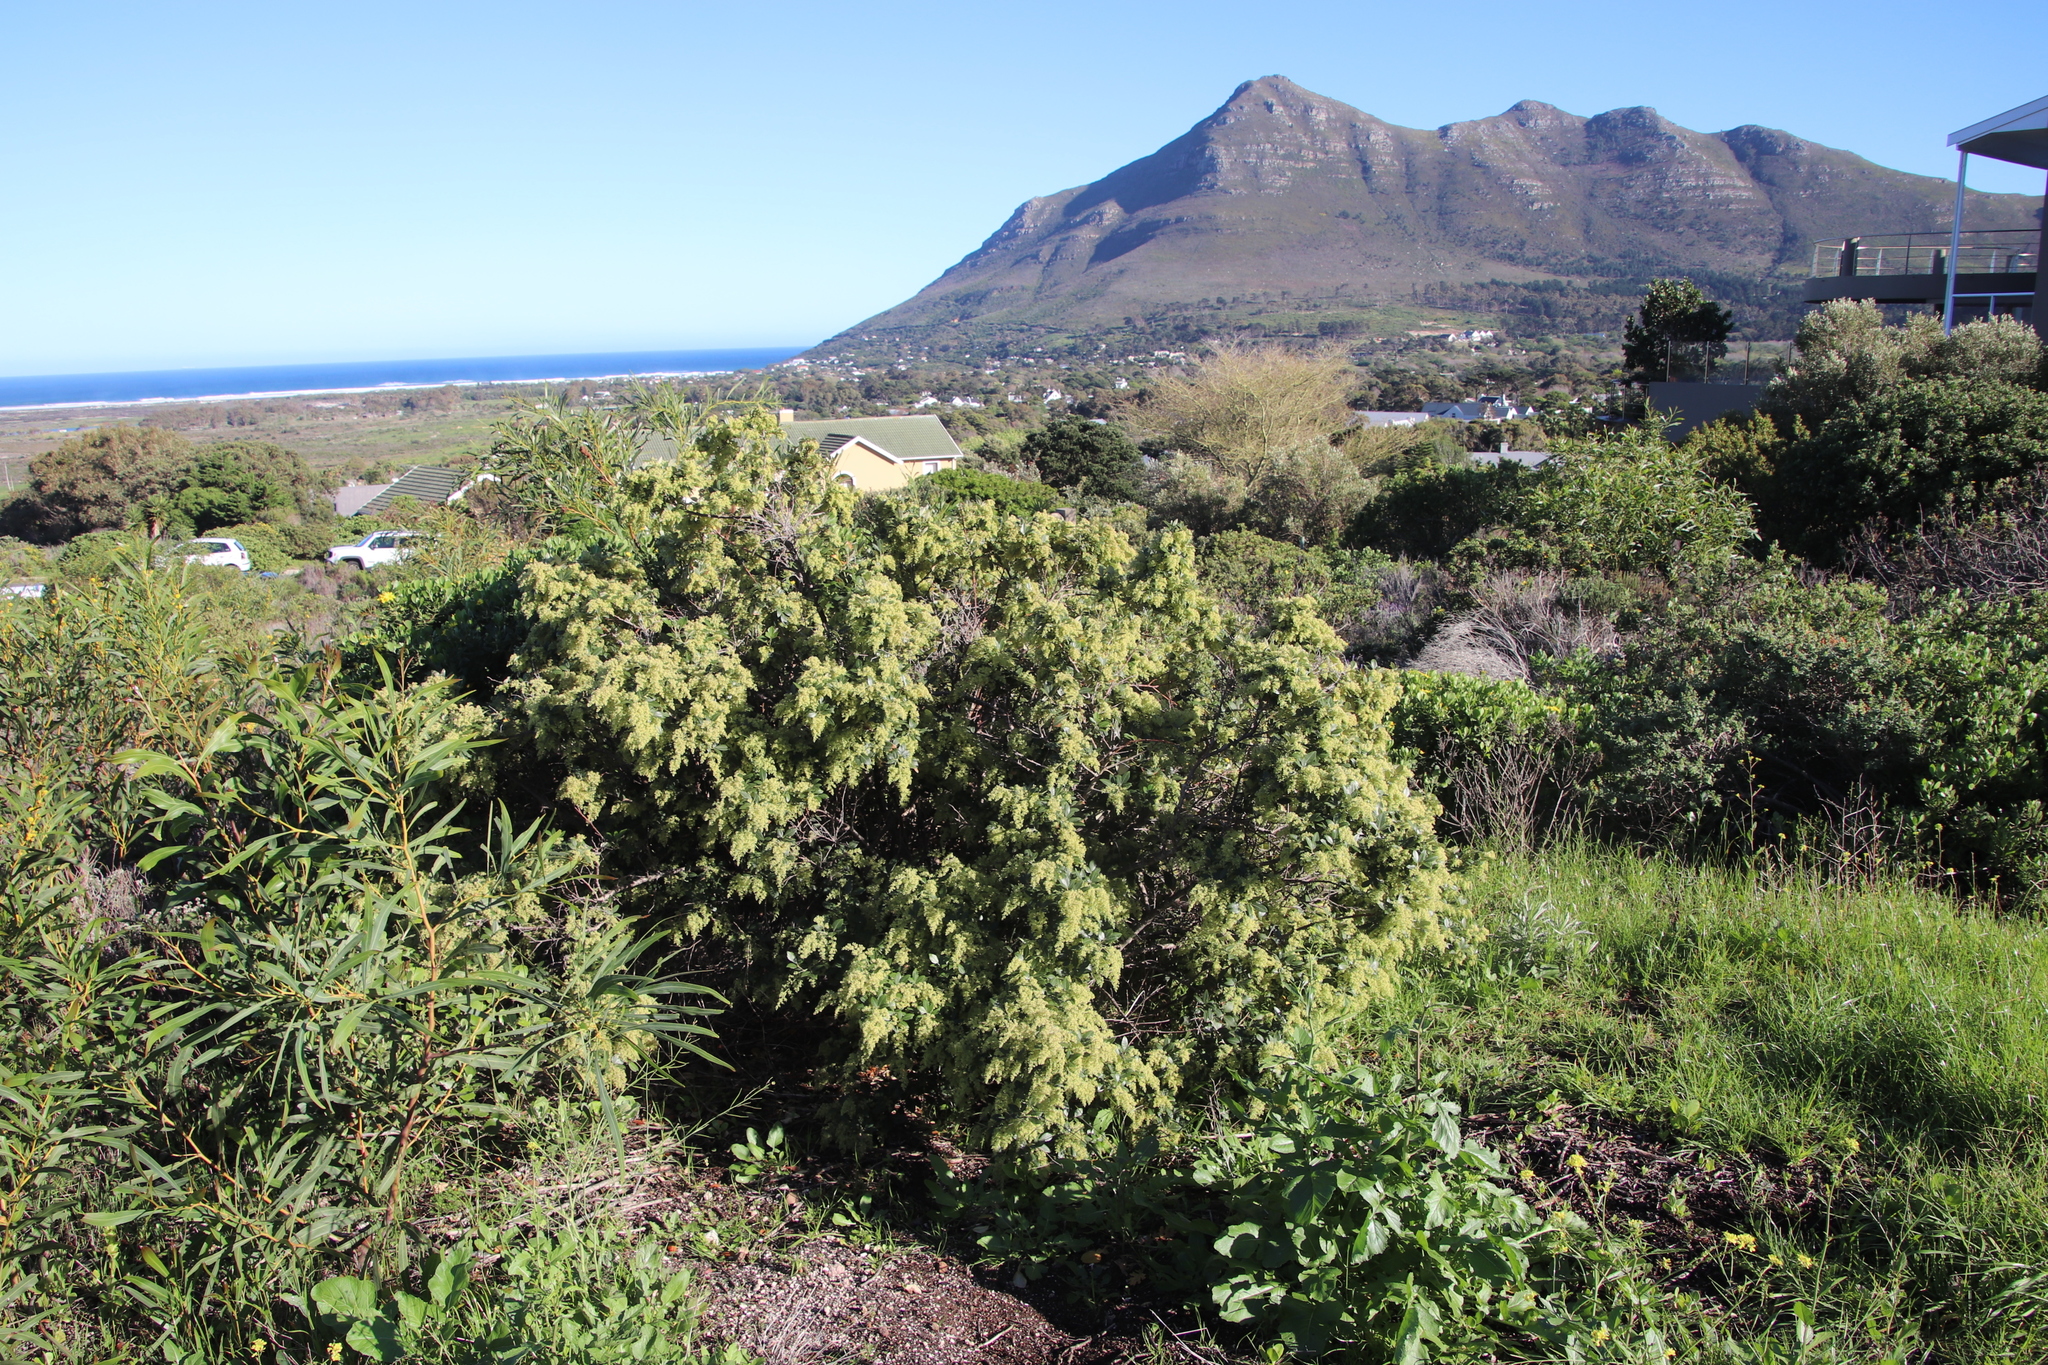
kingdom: Plantae
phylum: Tracheophyta
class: Magnoliopsida
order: Sapindales
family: Anacardiaceae
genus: Searsia
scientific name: Searsia tomentosa
